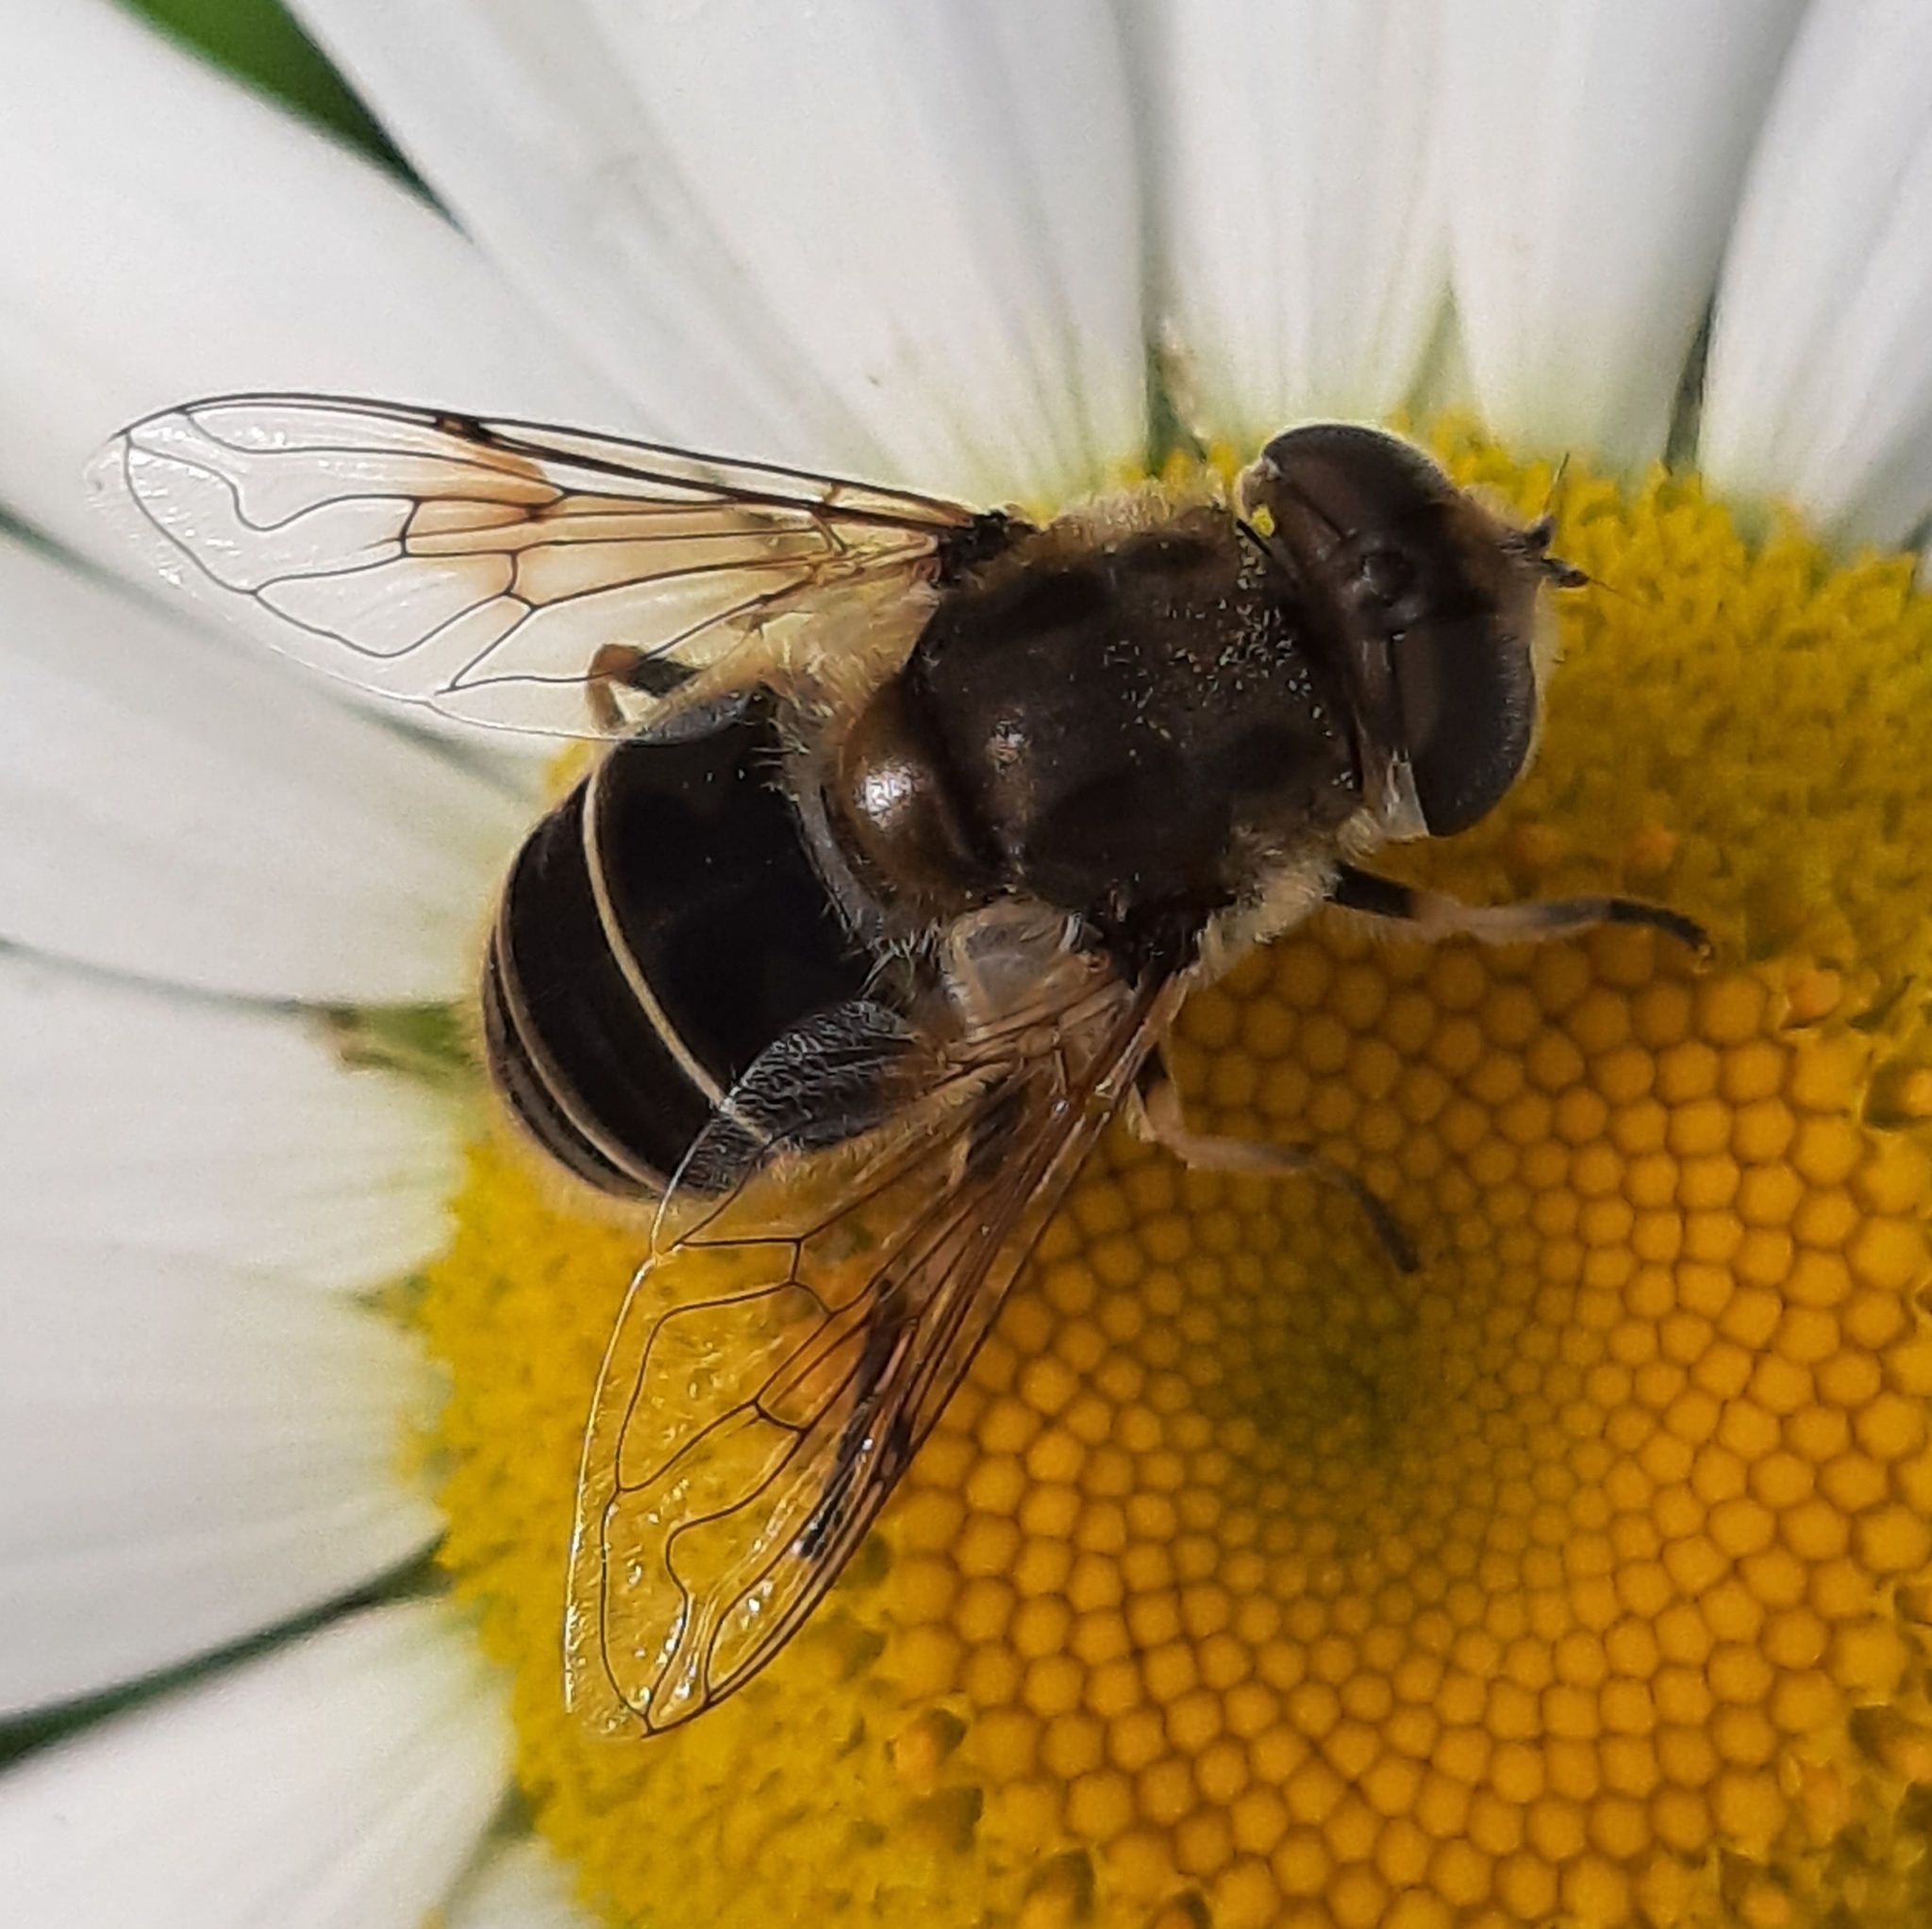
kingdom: Animalia
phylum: Arthropoda
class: Insecta
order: Diptera
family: Syrphidae
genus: Eristalis
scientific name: Eristalis arbustorum
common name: Hover fly
